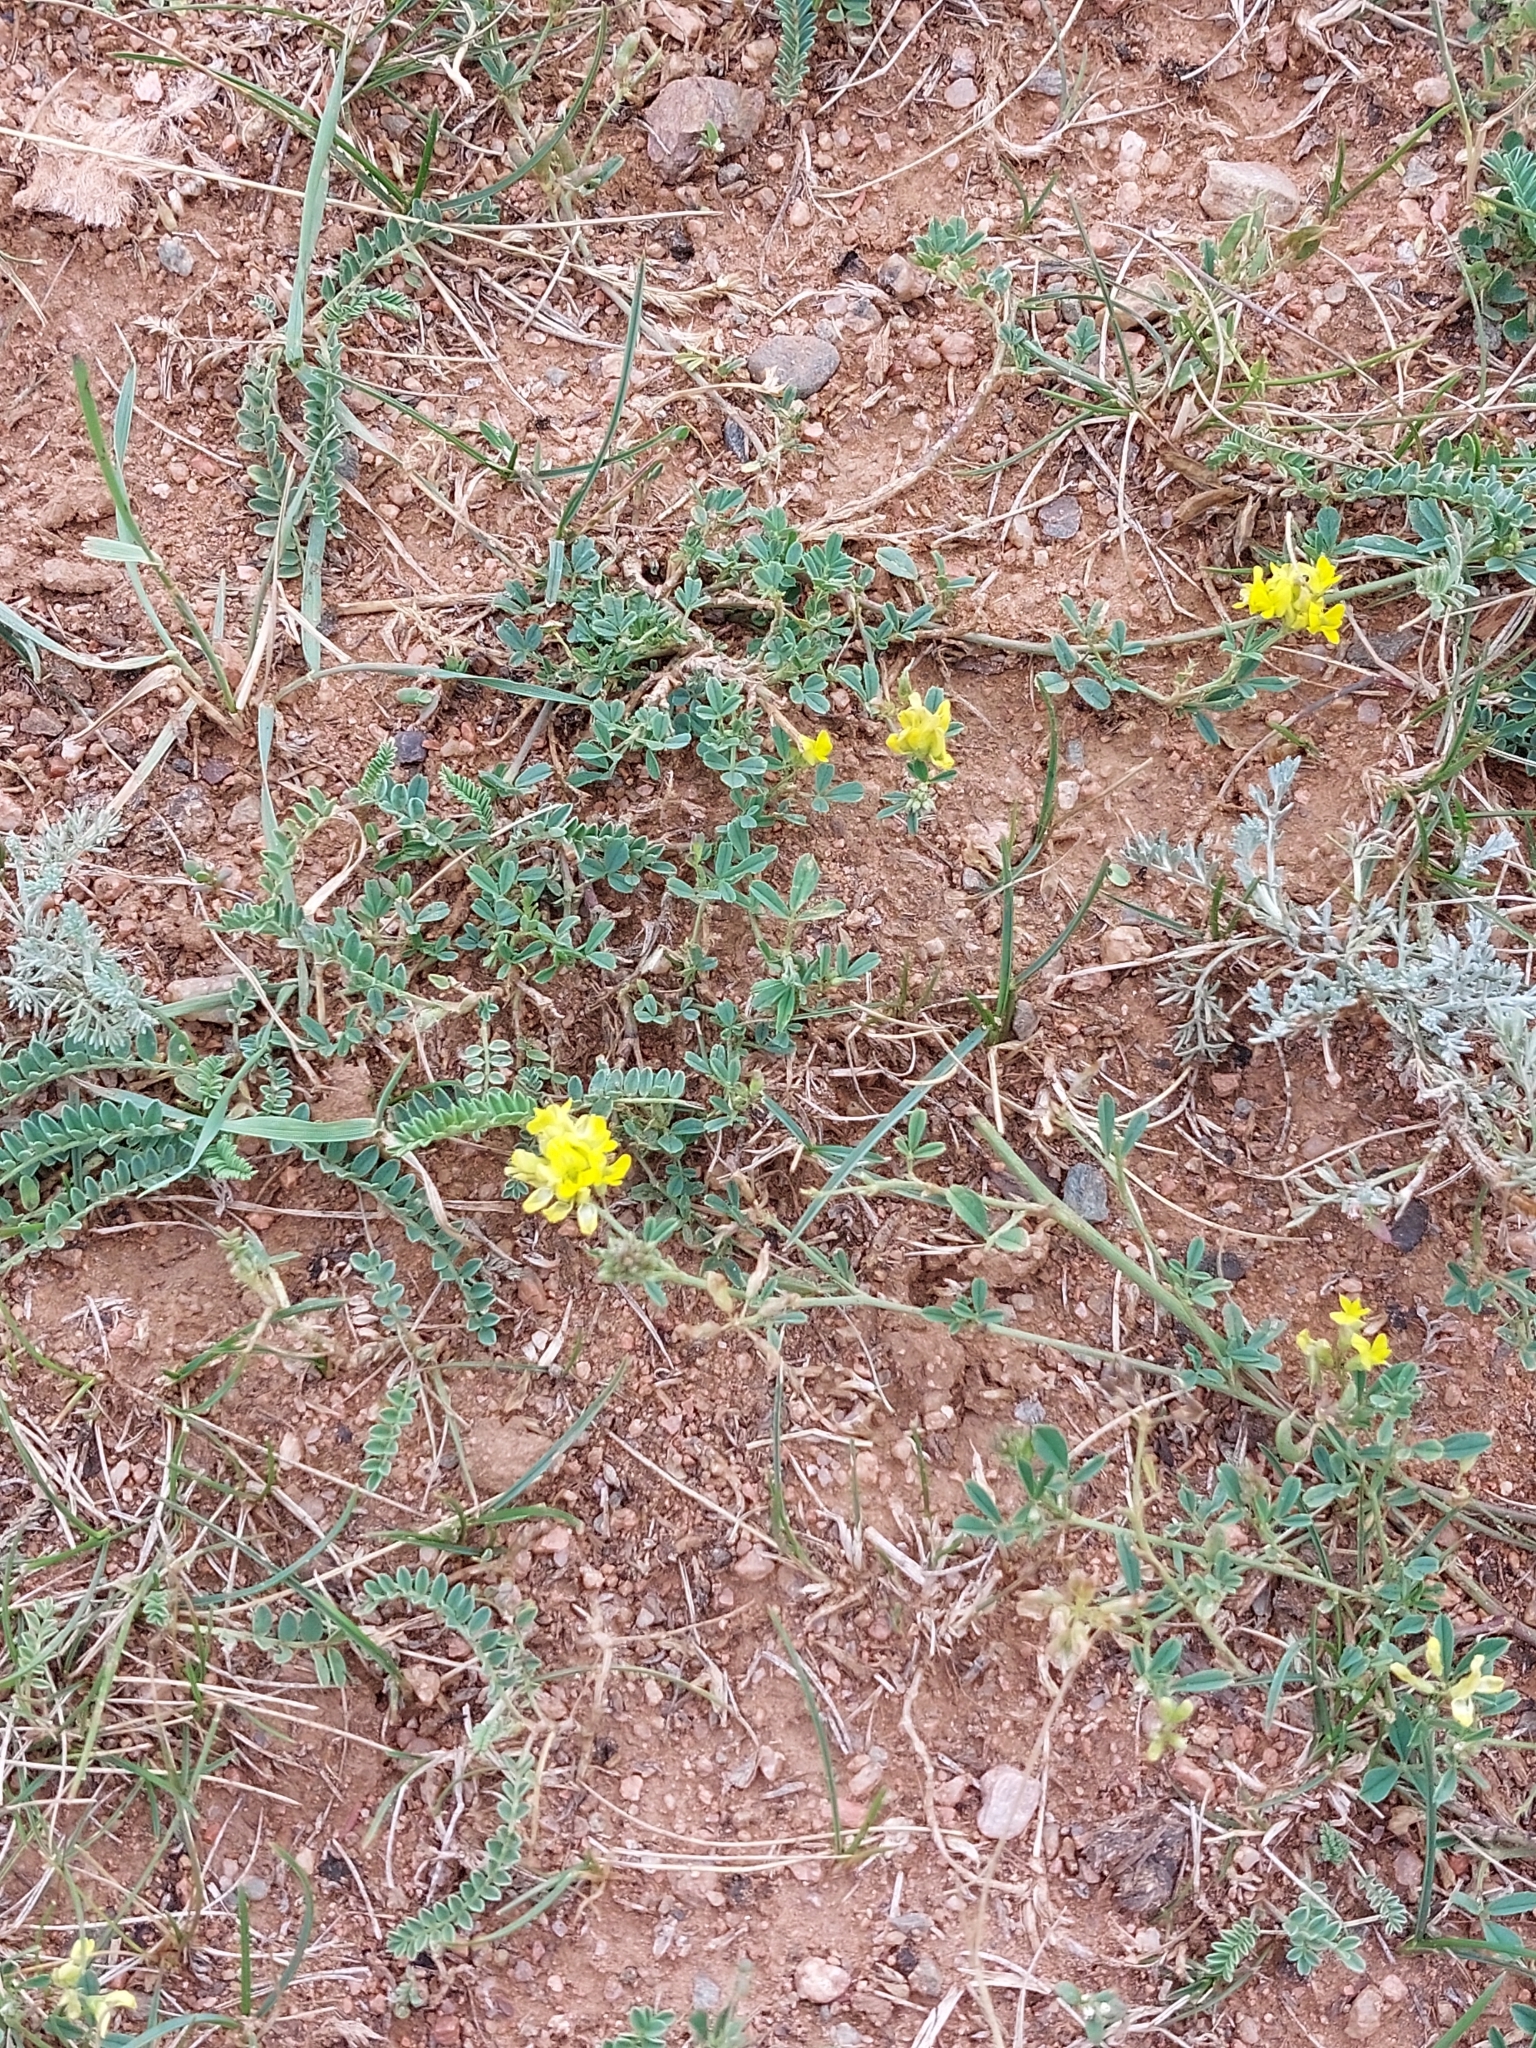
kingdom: Plantae
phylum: Tracheophyta
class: Magnoliopsida
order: Fabales
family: Fabaceae
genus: Medicago
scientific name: Medicago falcata
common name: Sickle medick
